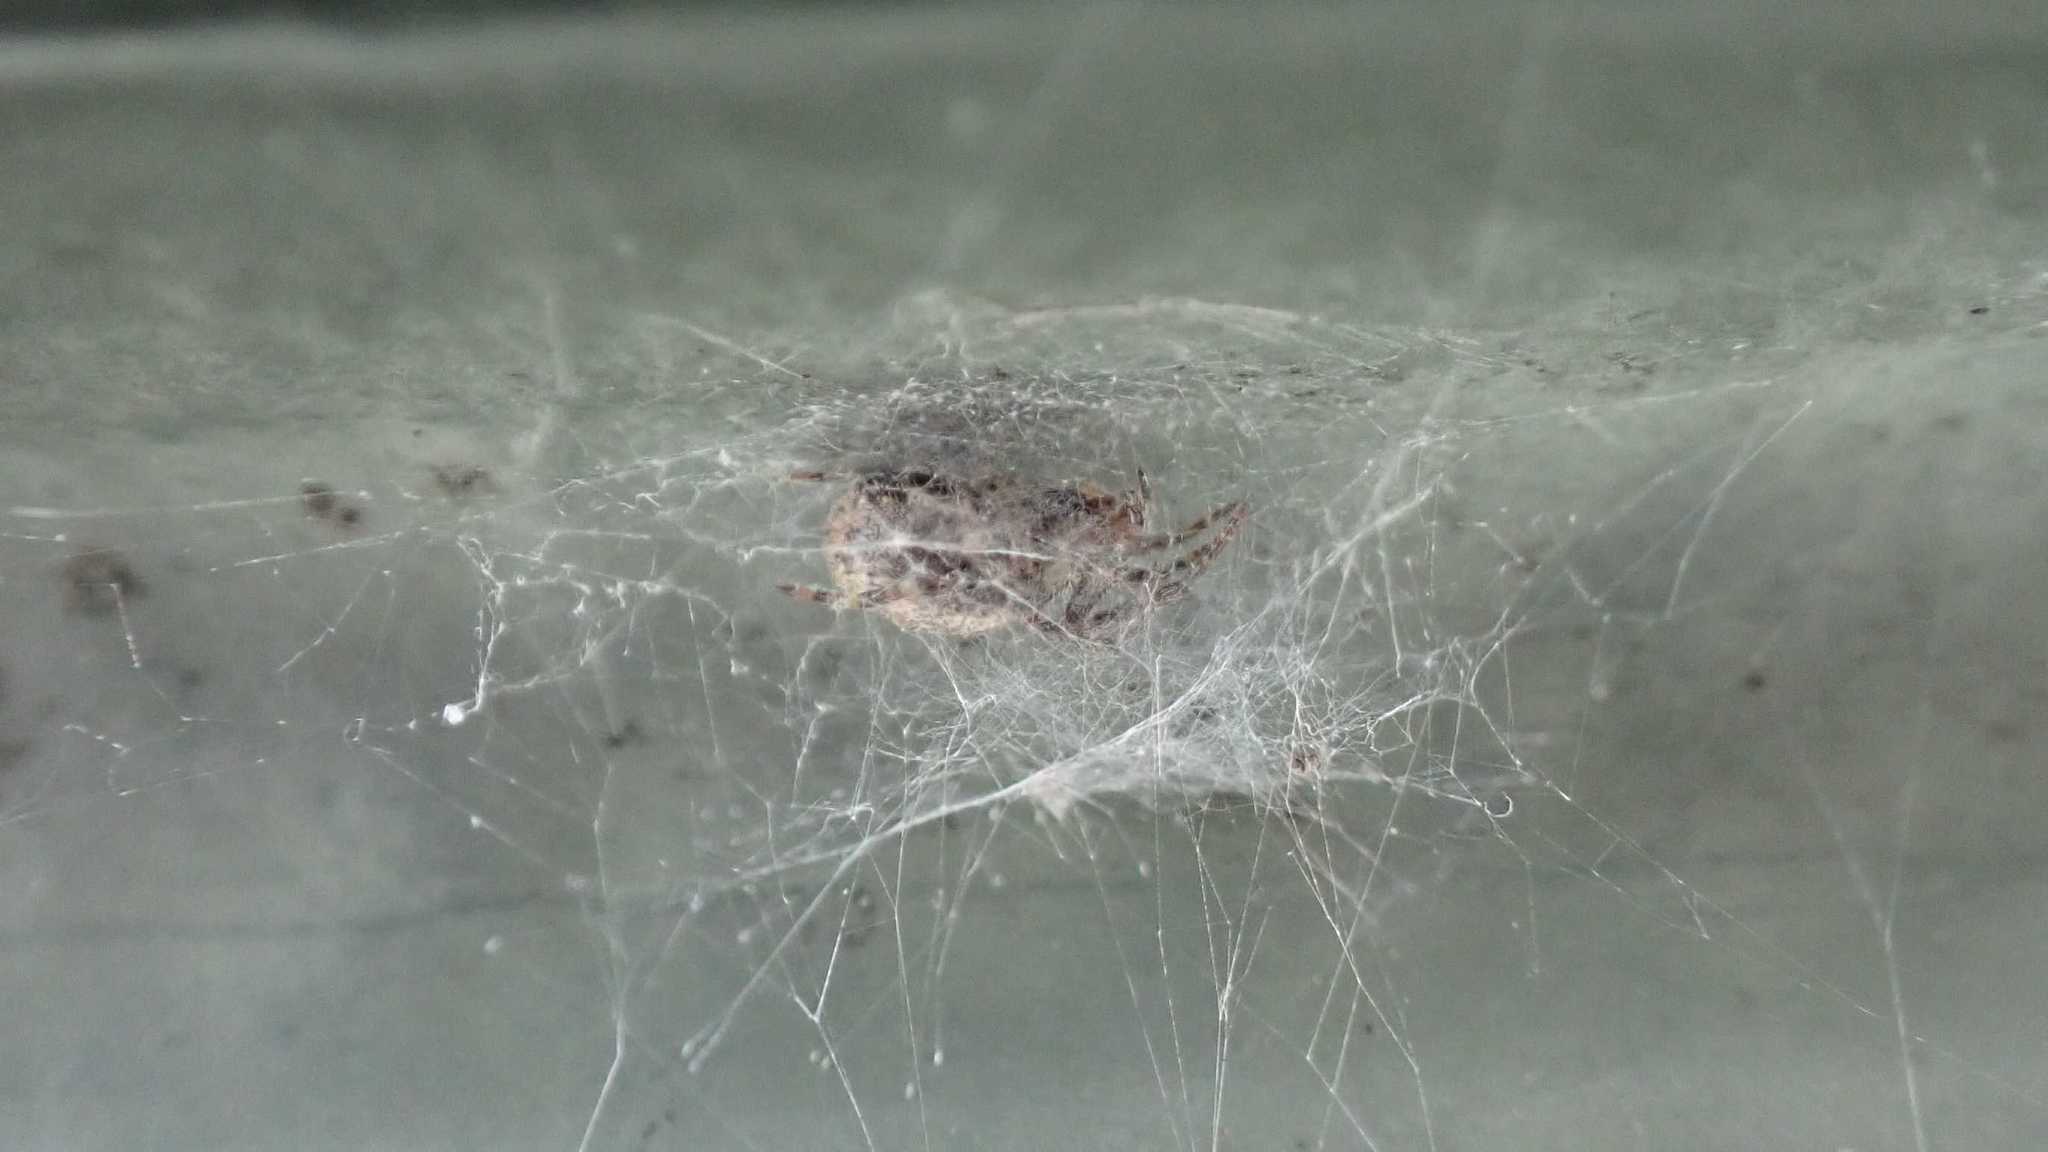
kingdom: Animalia
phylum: Arthropoda
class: Arachnida
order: Araneae
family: Araneidae
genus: Larinioides
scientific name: Larinioides sclopetarius
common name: Bridge orbweaver
